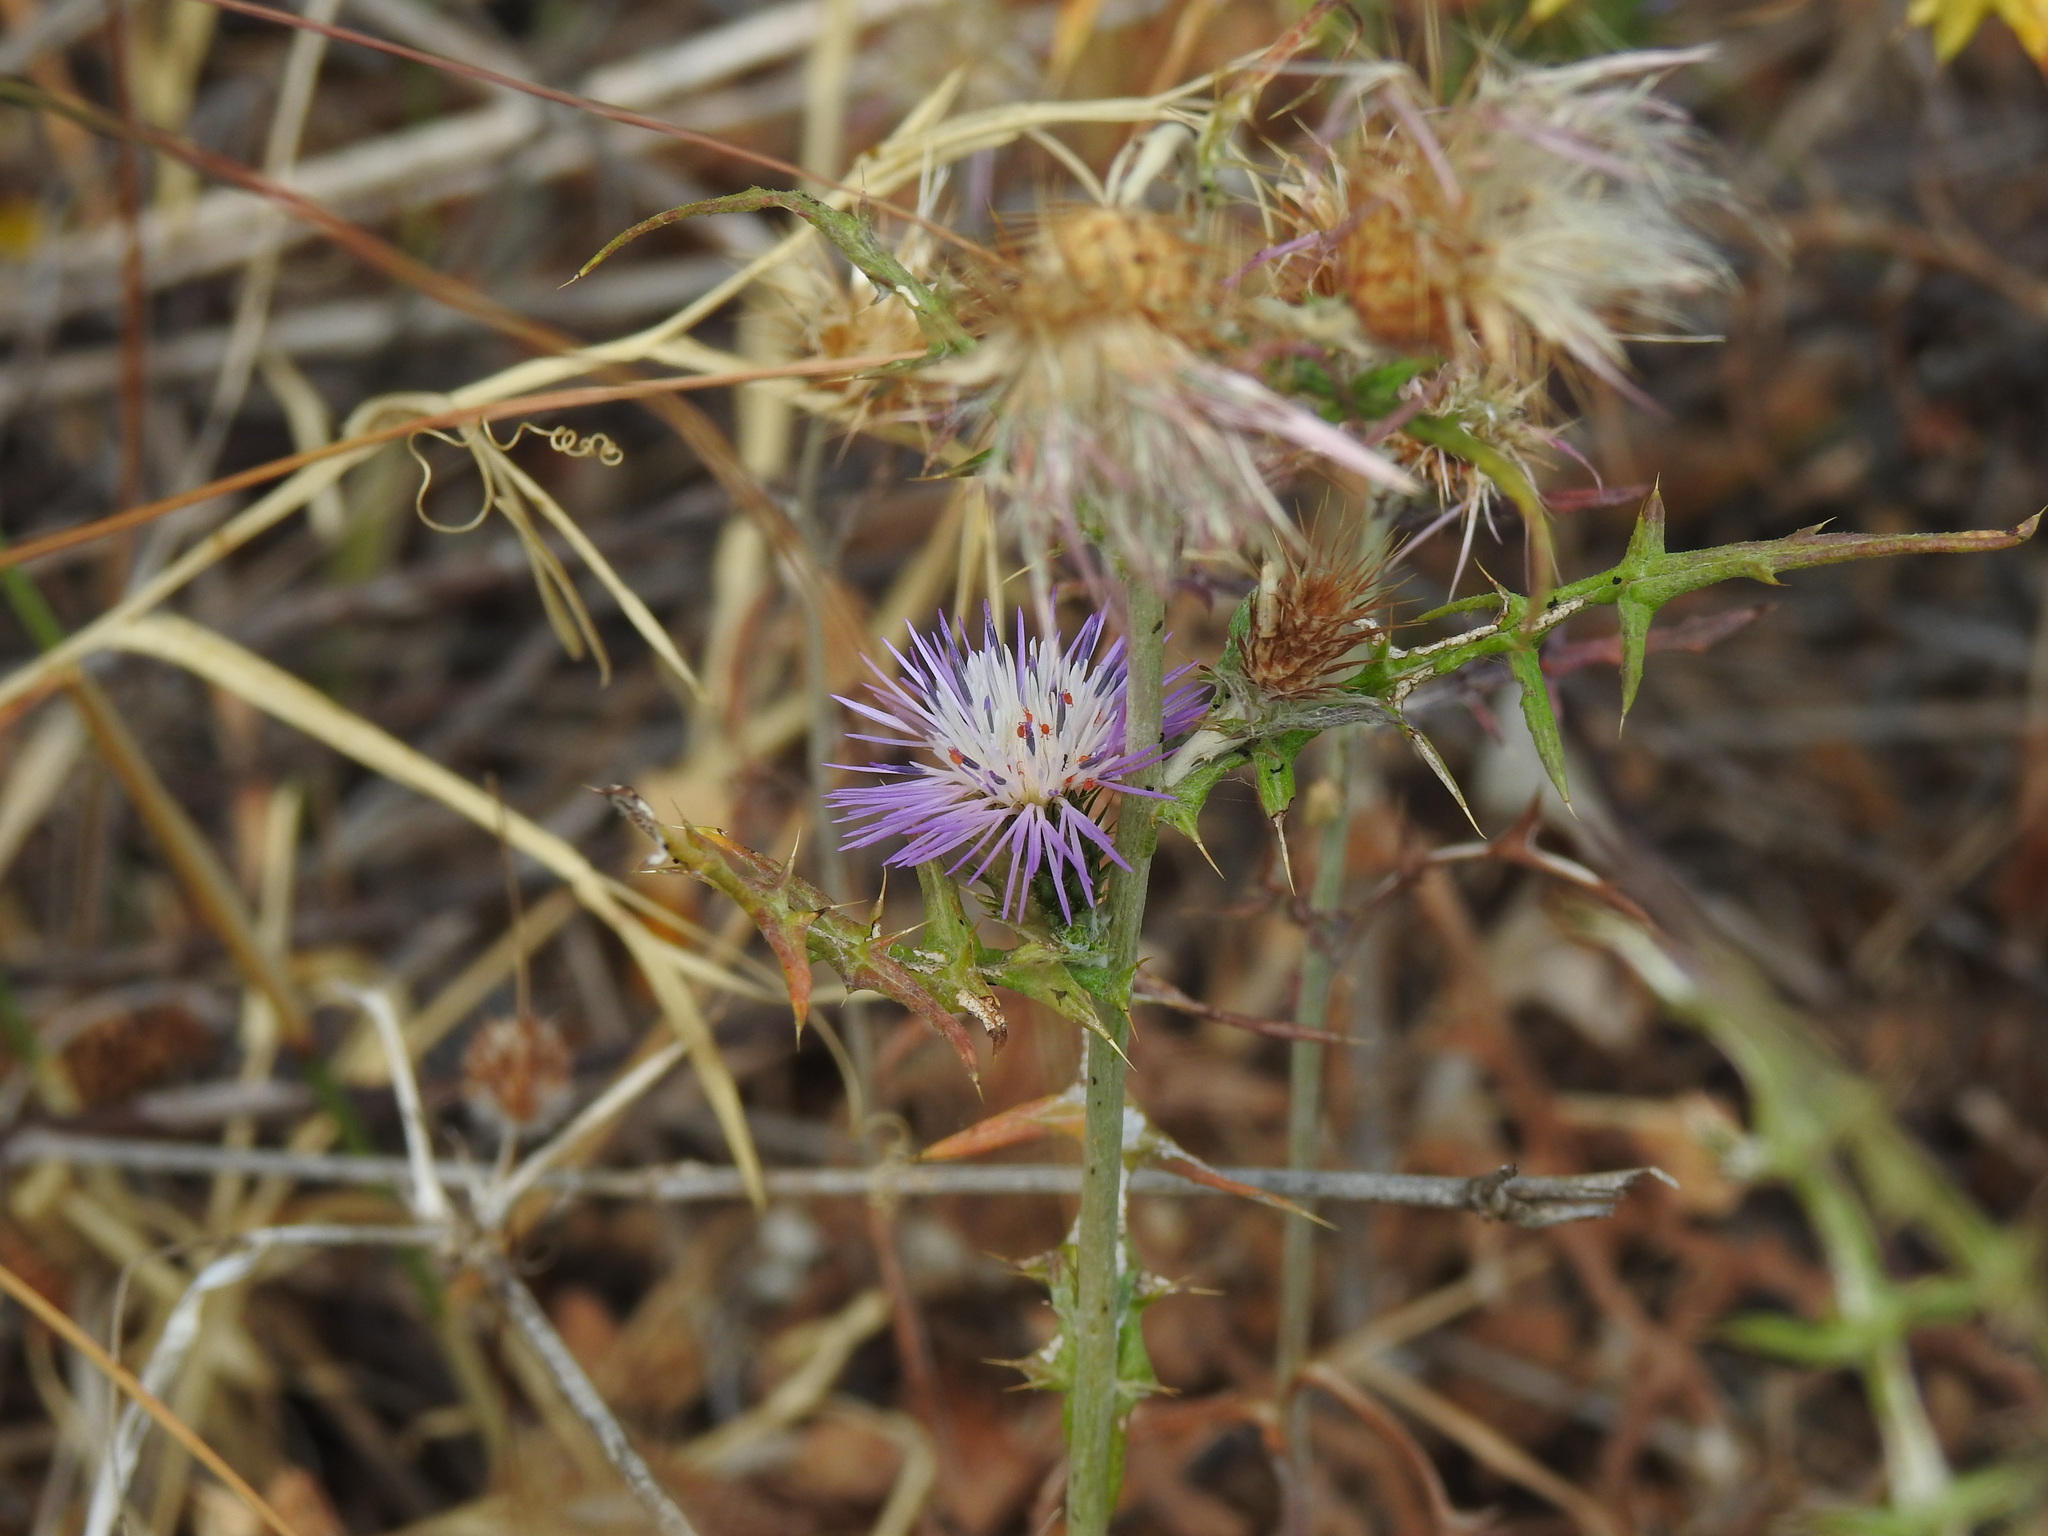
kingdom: Plantae
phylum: Tracheophyta
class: Magnoliopsida
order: Asterales
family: Asteraceae
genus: Galactites
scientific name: Galactites tomentosa
